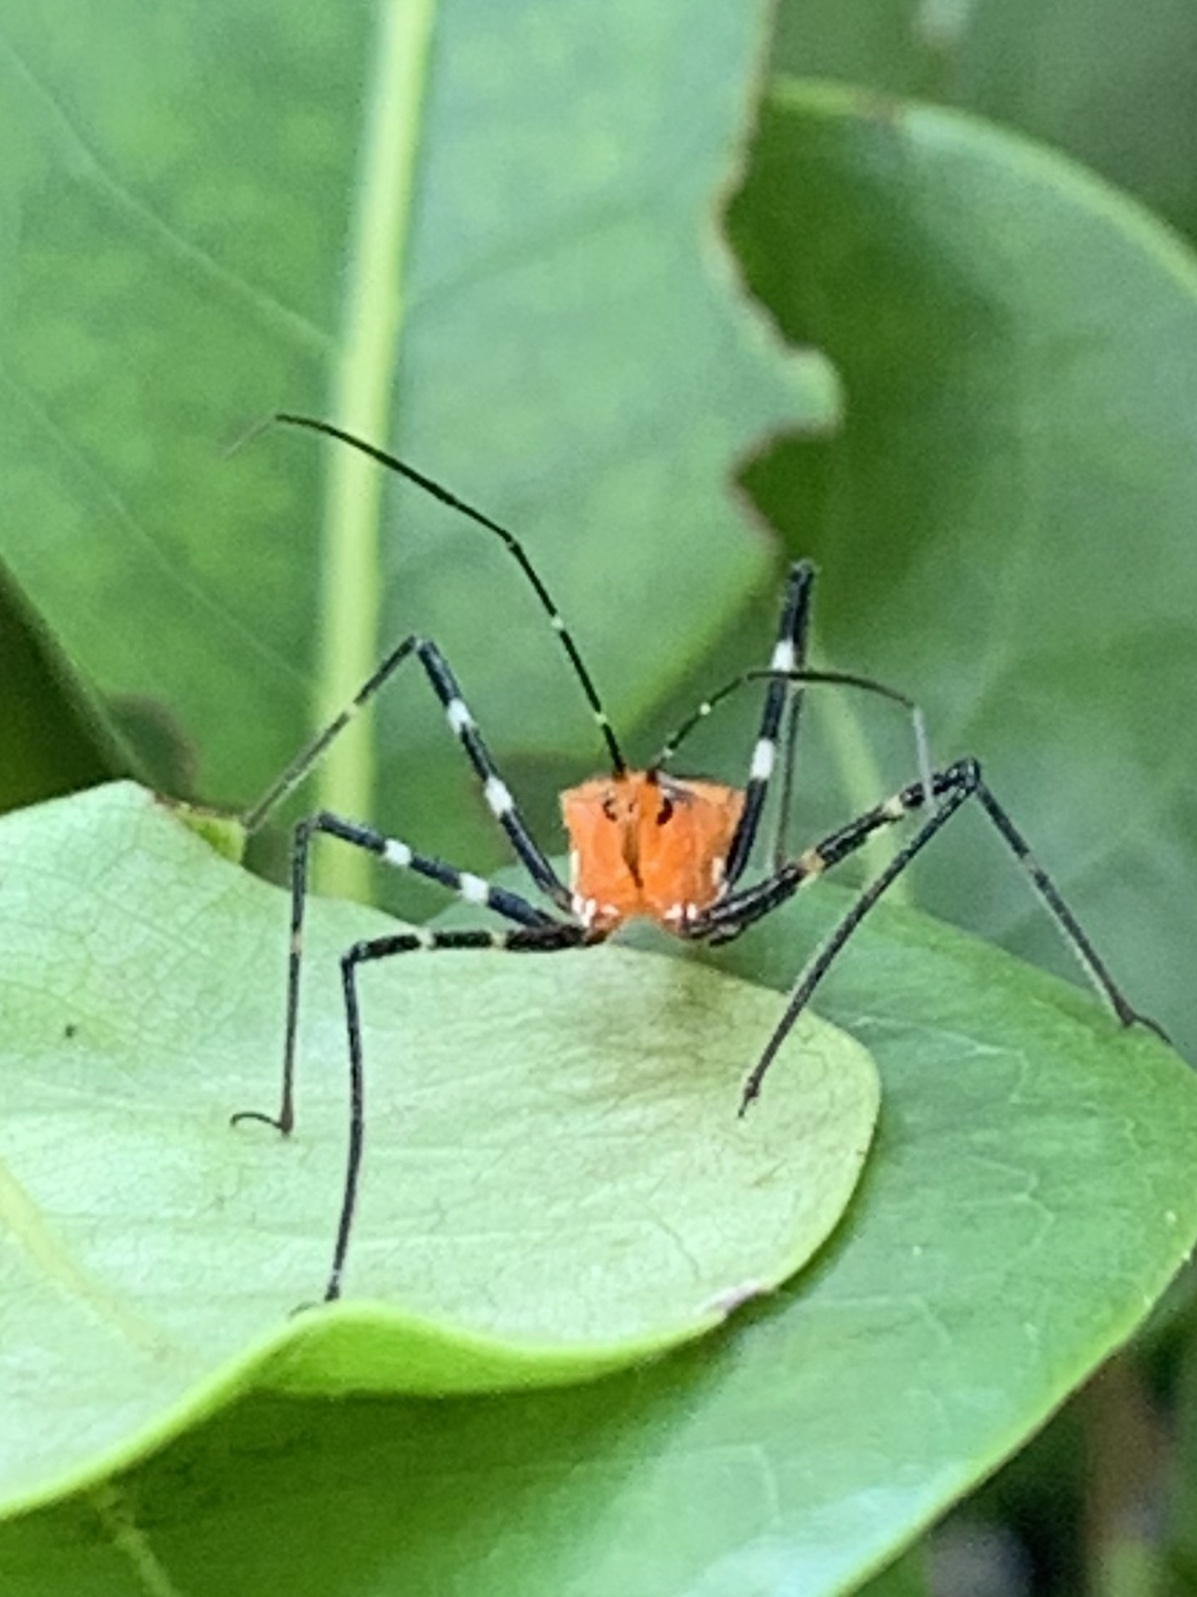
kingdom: Animalia
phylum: Arthropoda
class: Insecta
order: Hemiptera
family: Reduviidae
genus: Zelus
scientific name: Zelus longipes
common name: Milkweed assassin bug
